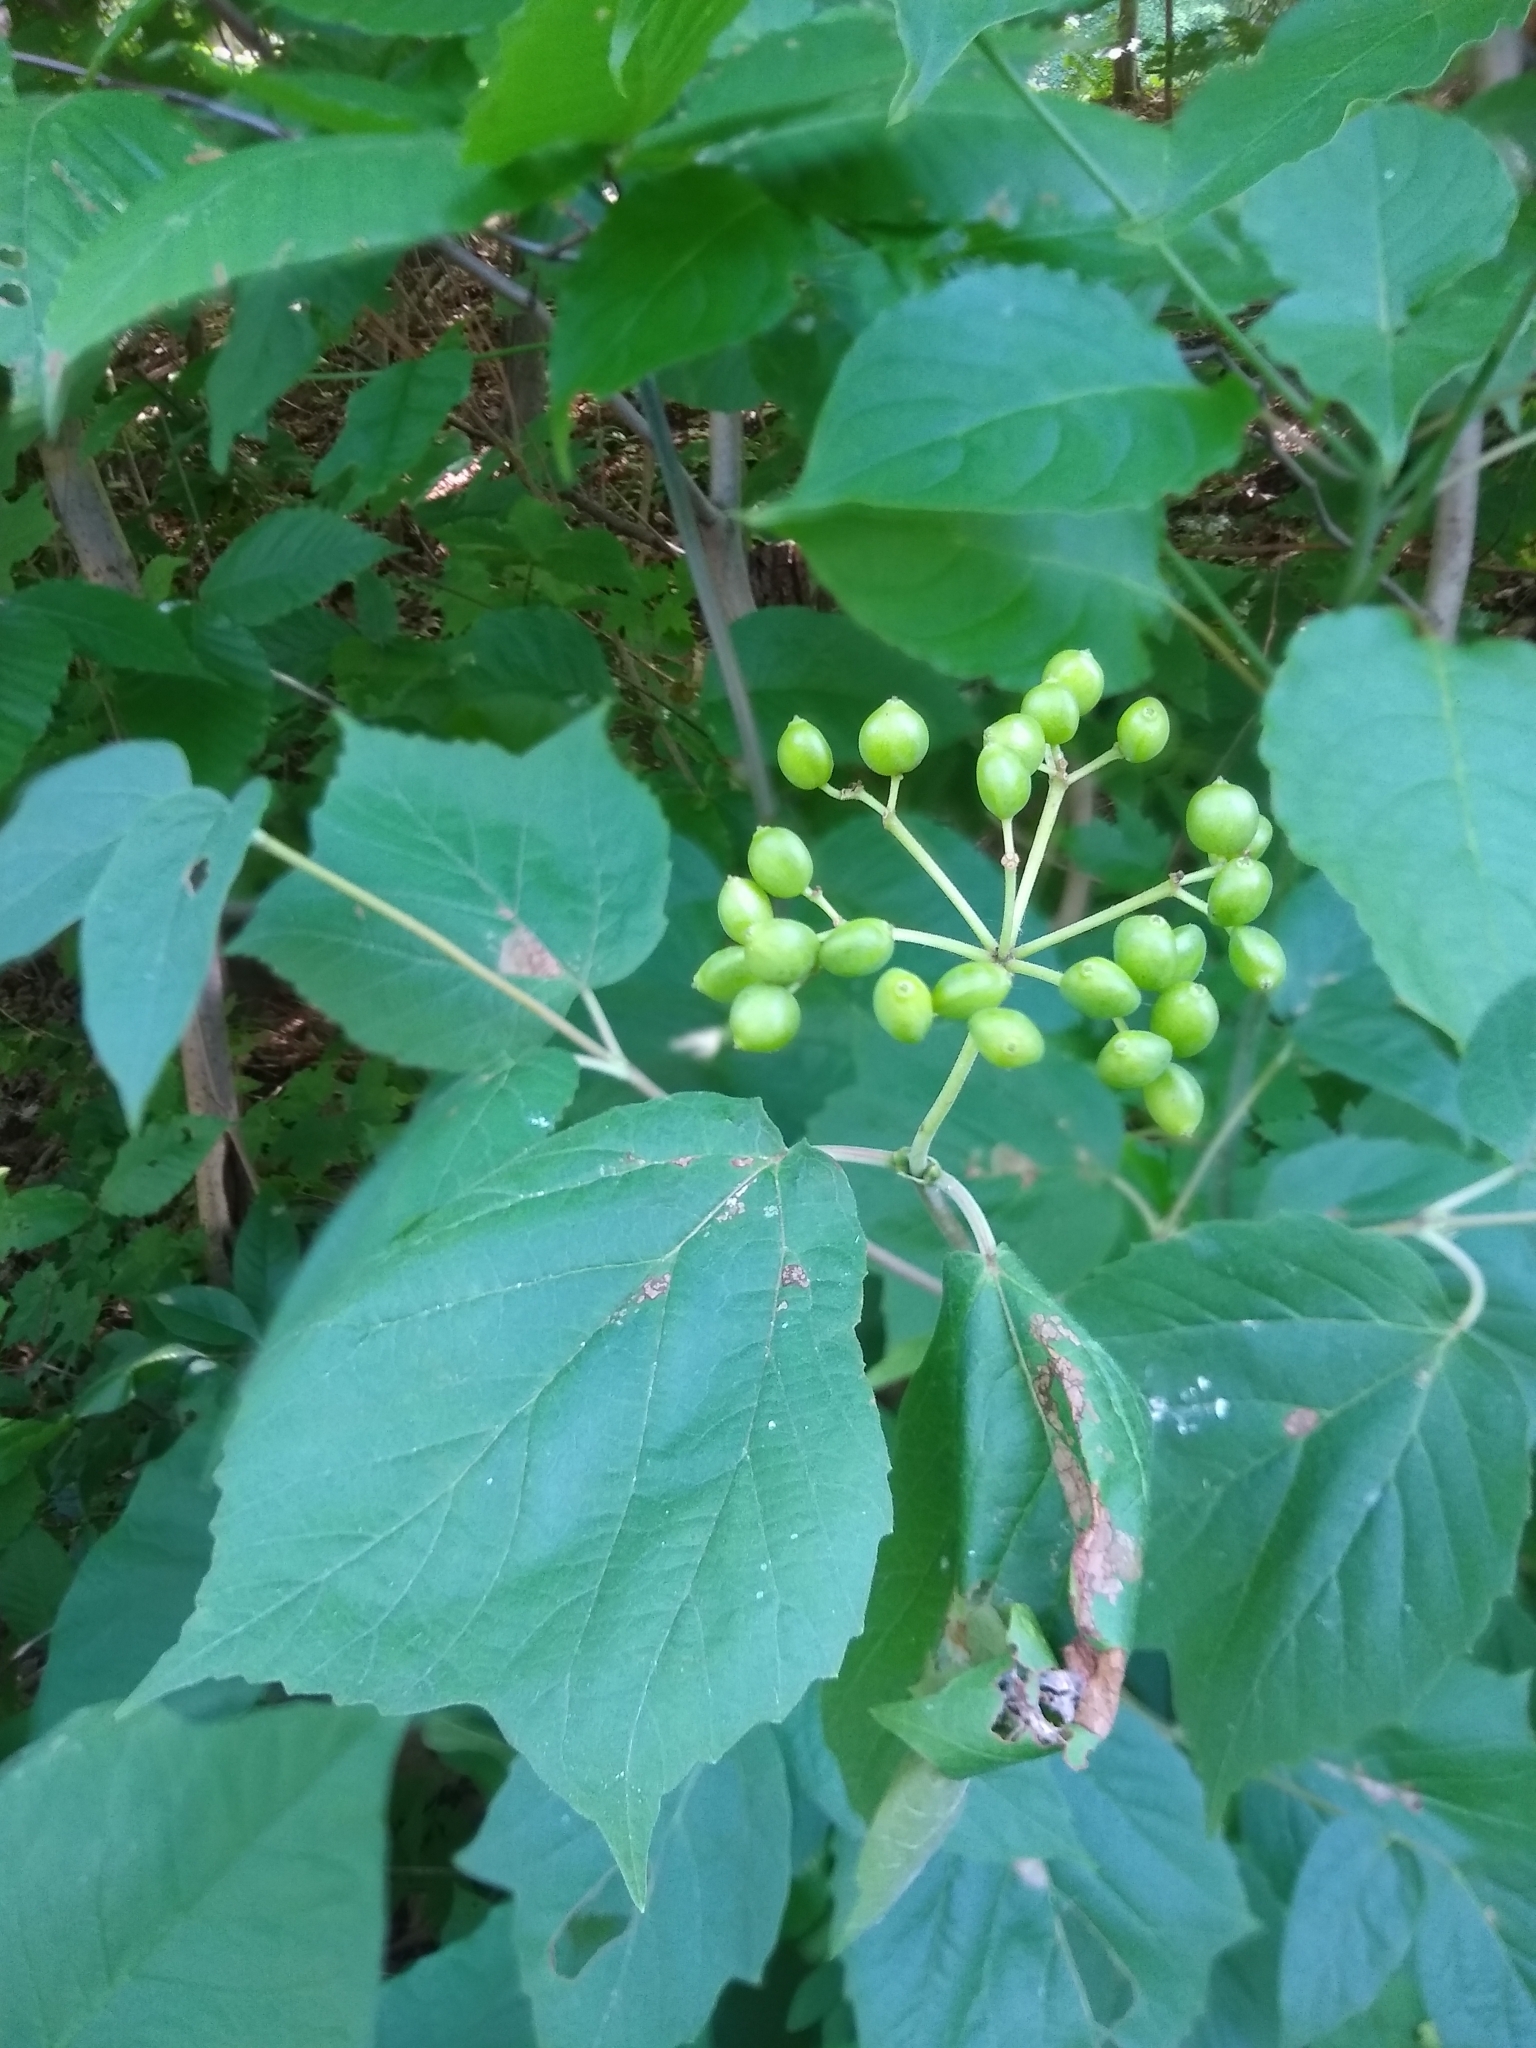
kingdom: Plantae
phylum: Tracheophyta
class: Magnoliopsida
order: Dipsacales
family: Viburnaceae
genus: Viburnum
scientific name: Viburnum acerifolium
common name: Dockmackie
